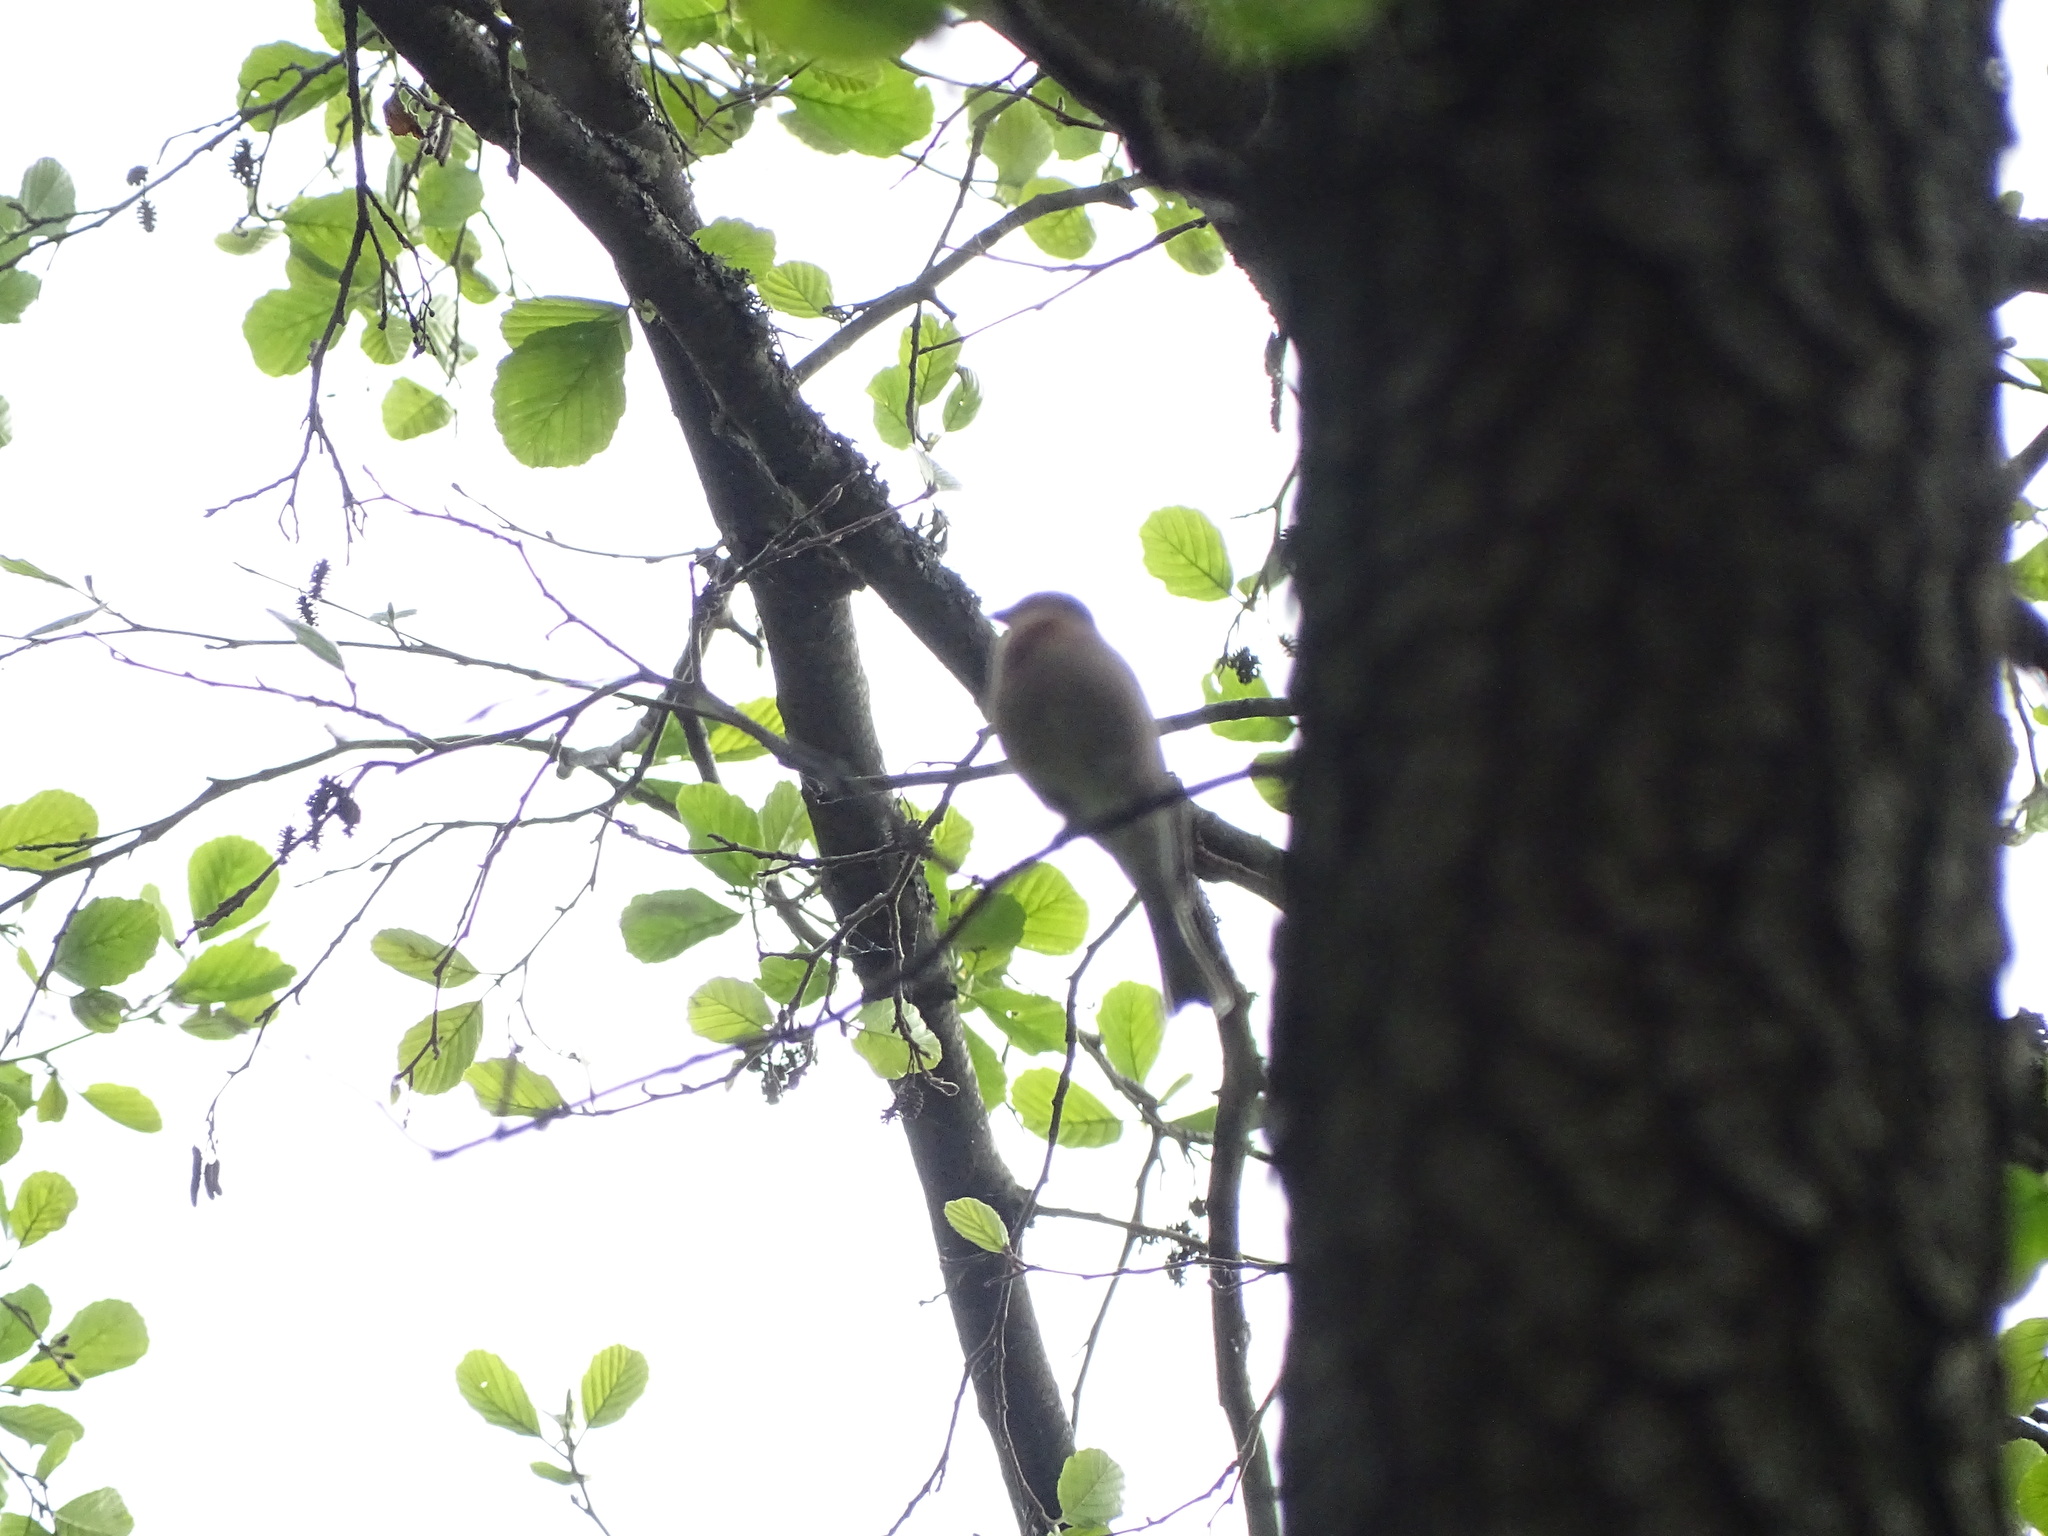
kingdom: Animalia
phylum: Chordata
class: Aves
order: Passeriformes
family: Fringillidae
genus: Fringilla
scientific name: Fringilla coelebs
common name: Common chaffinch
